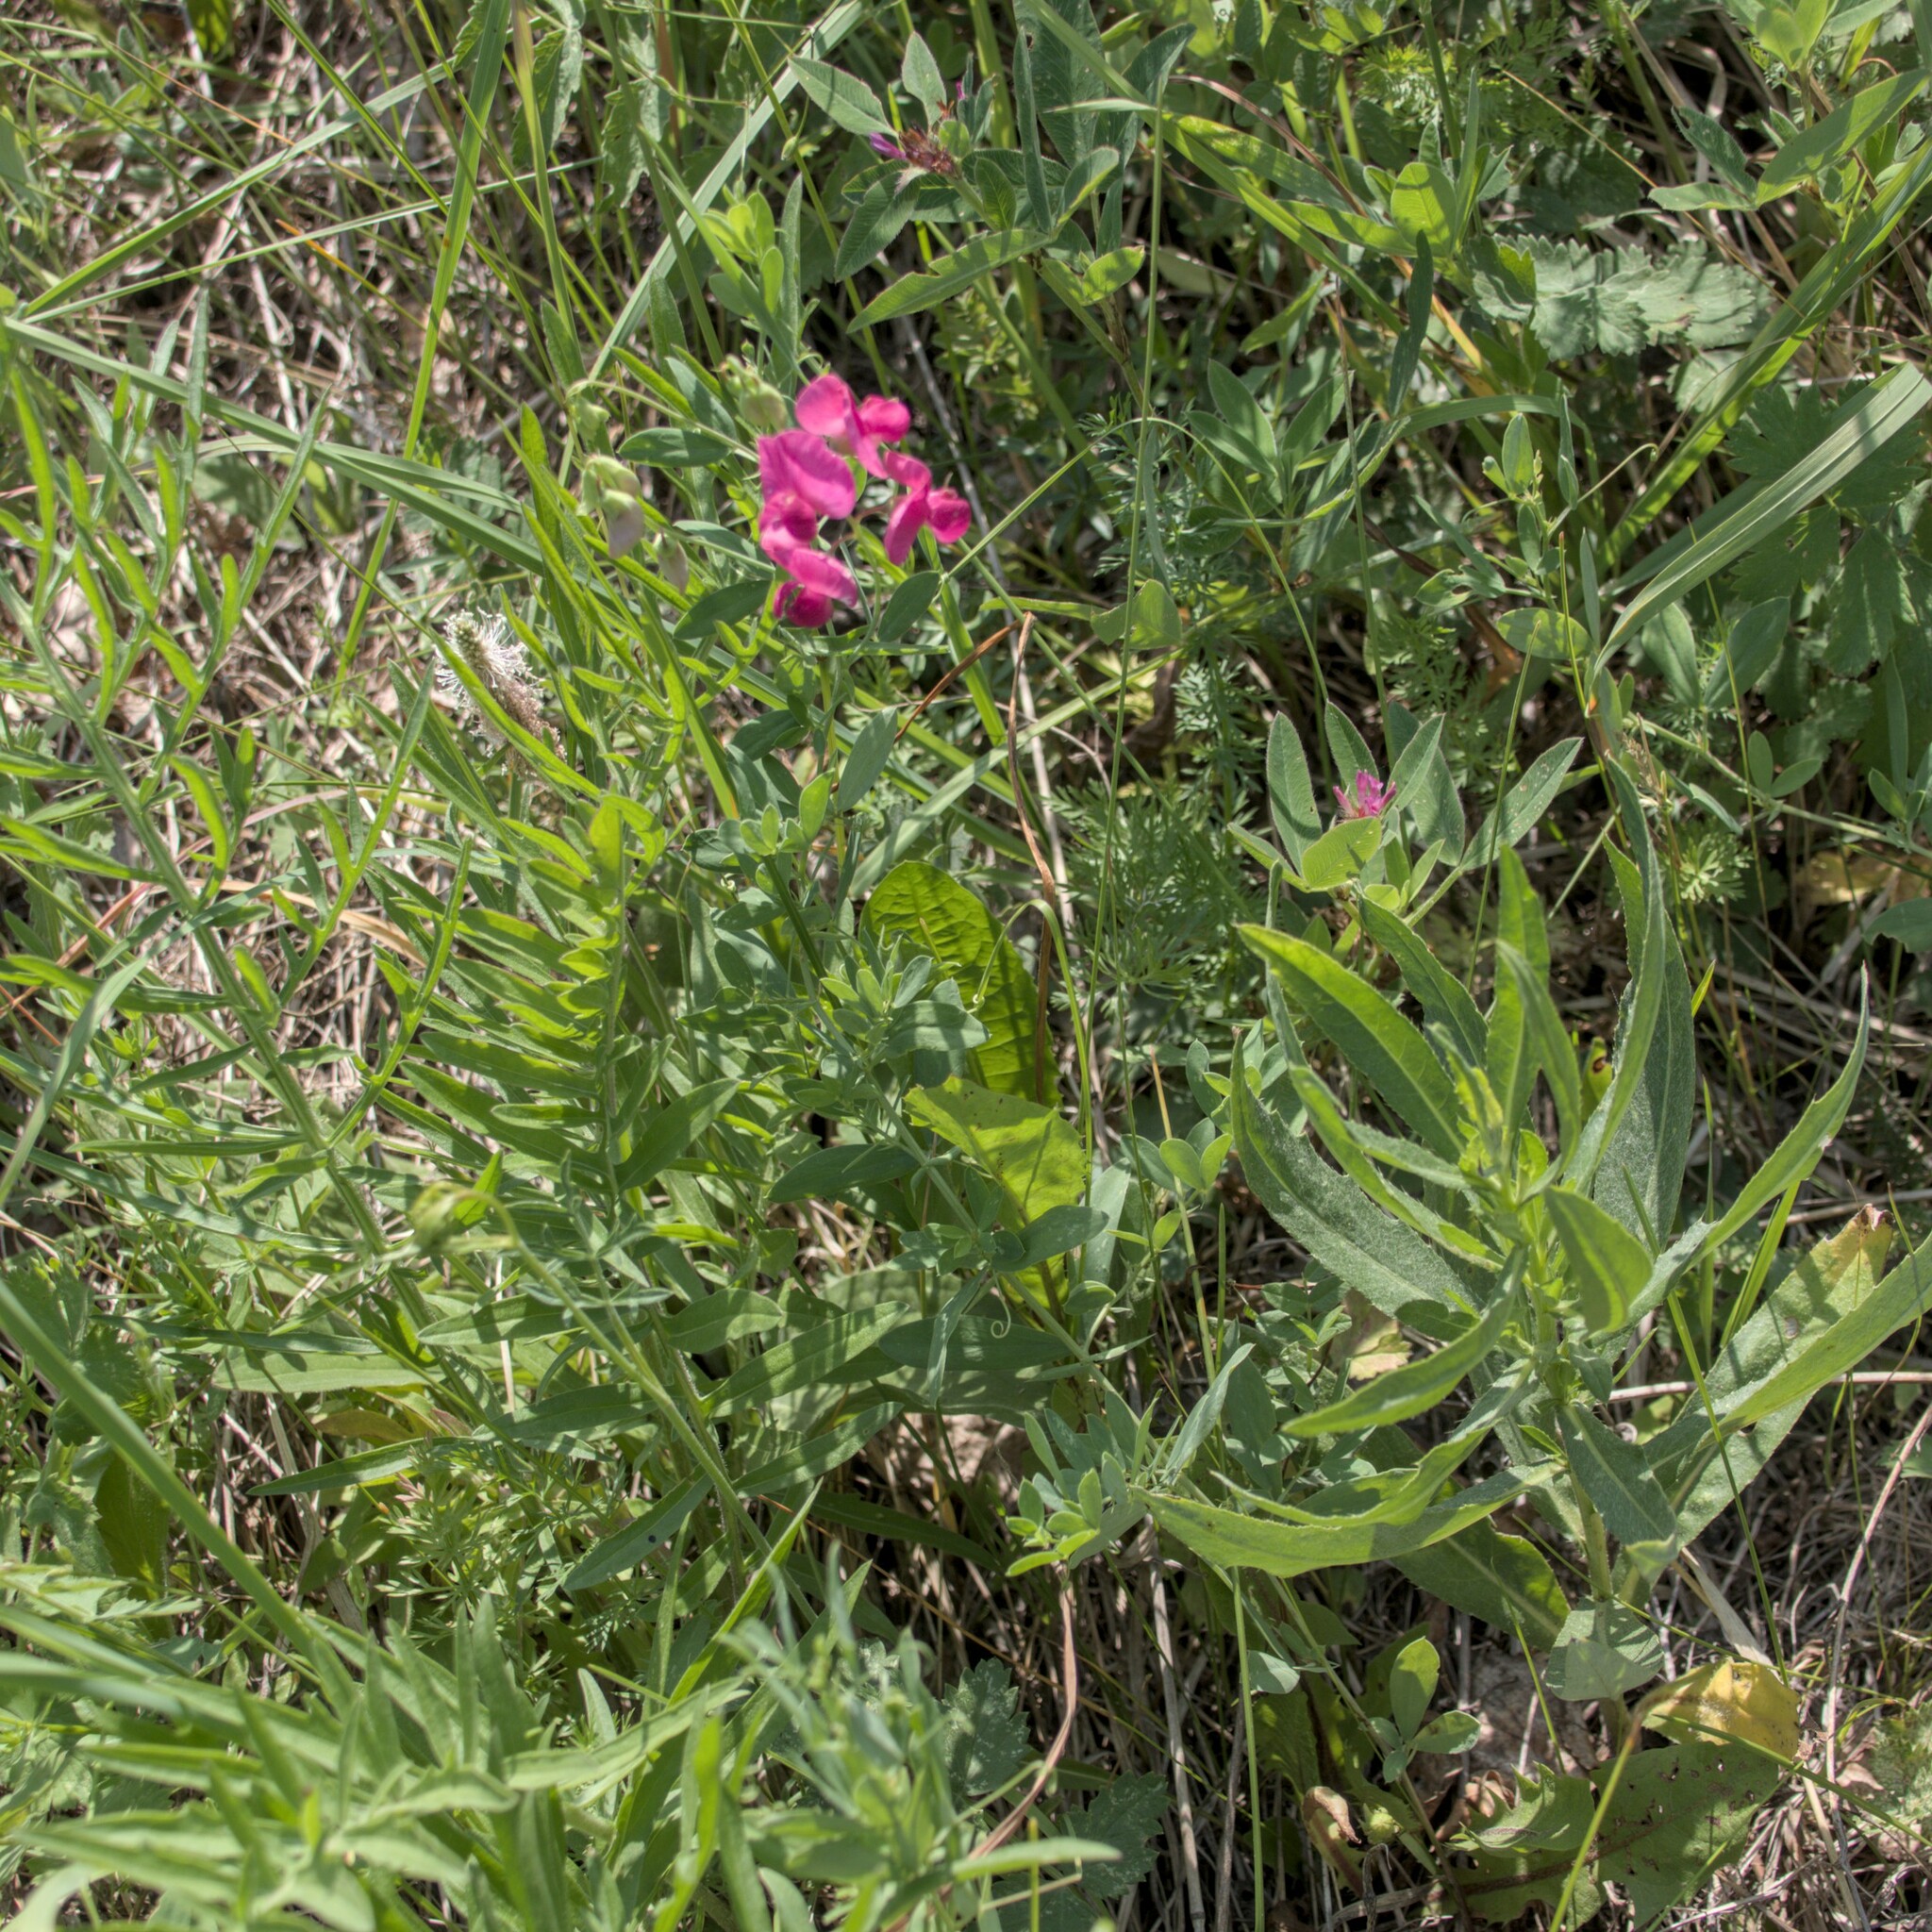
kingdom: Plantae
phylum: Tracheophyta
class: Magnoliopsida
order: Fabales
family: Fabaceae
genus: Lathyrus
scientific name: Lathyrus tuberosus
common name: Tuberous pea
